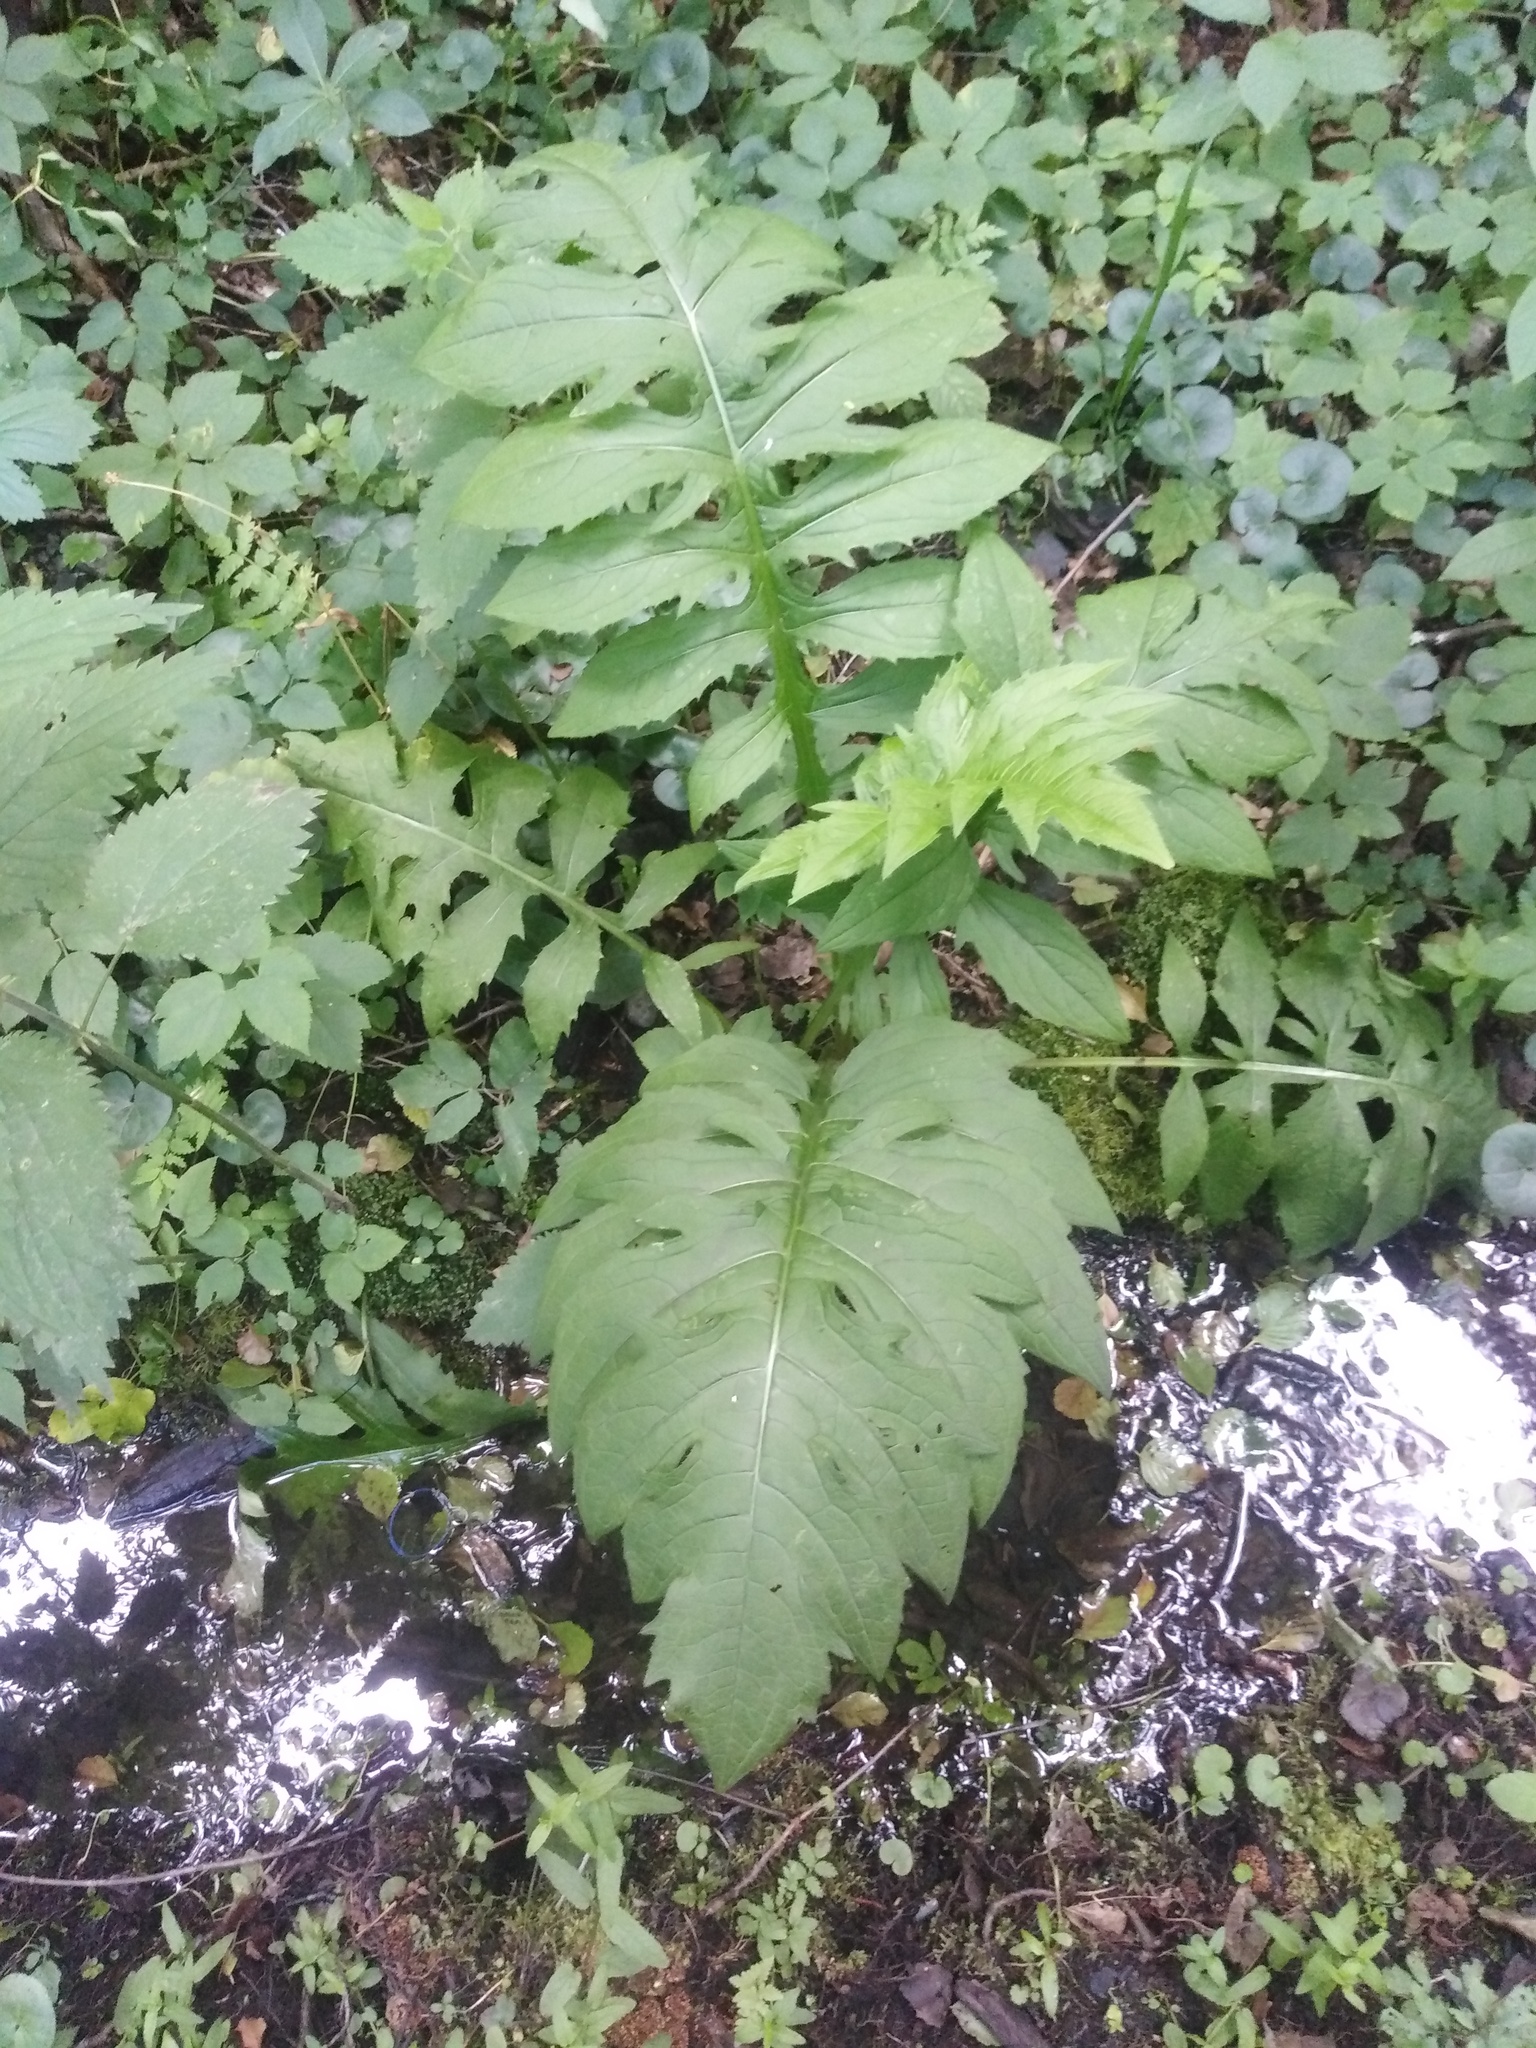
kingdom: Plantae
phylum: Tracheophyta
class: Magnoliopsida
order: Asterales
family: Asteraceae
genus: Cirsium
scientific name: Cirsium oleraceum
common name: Cabbage thistle
